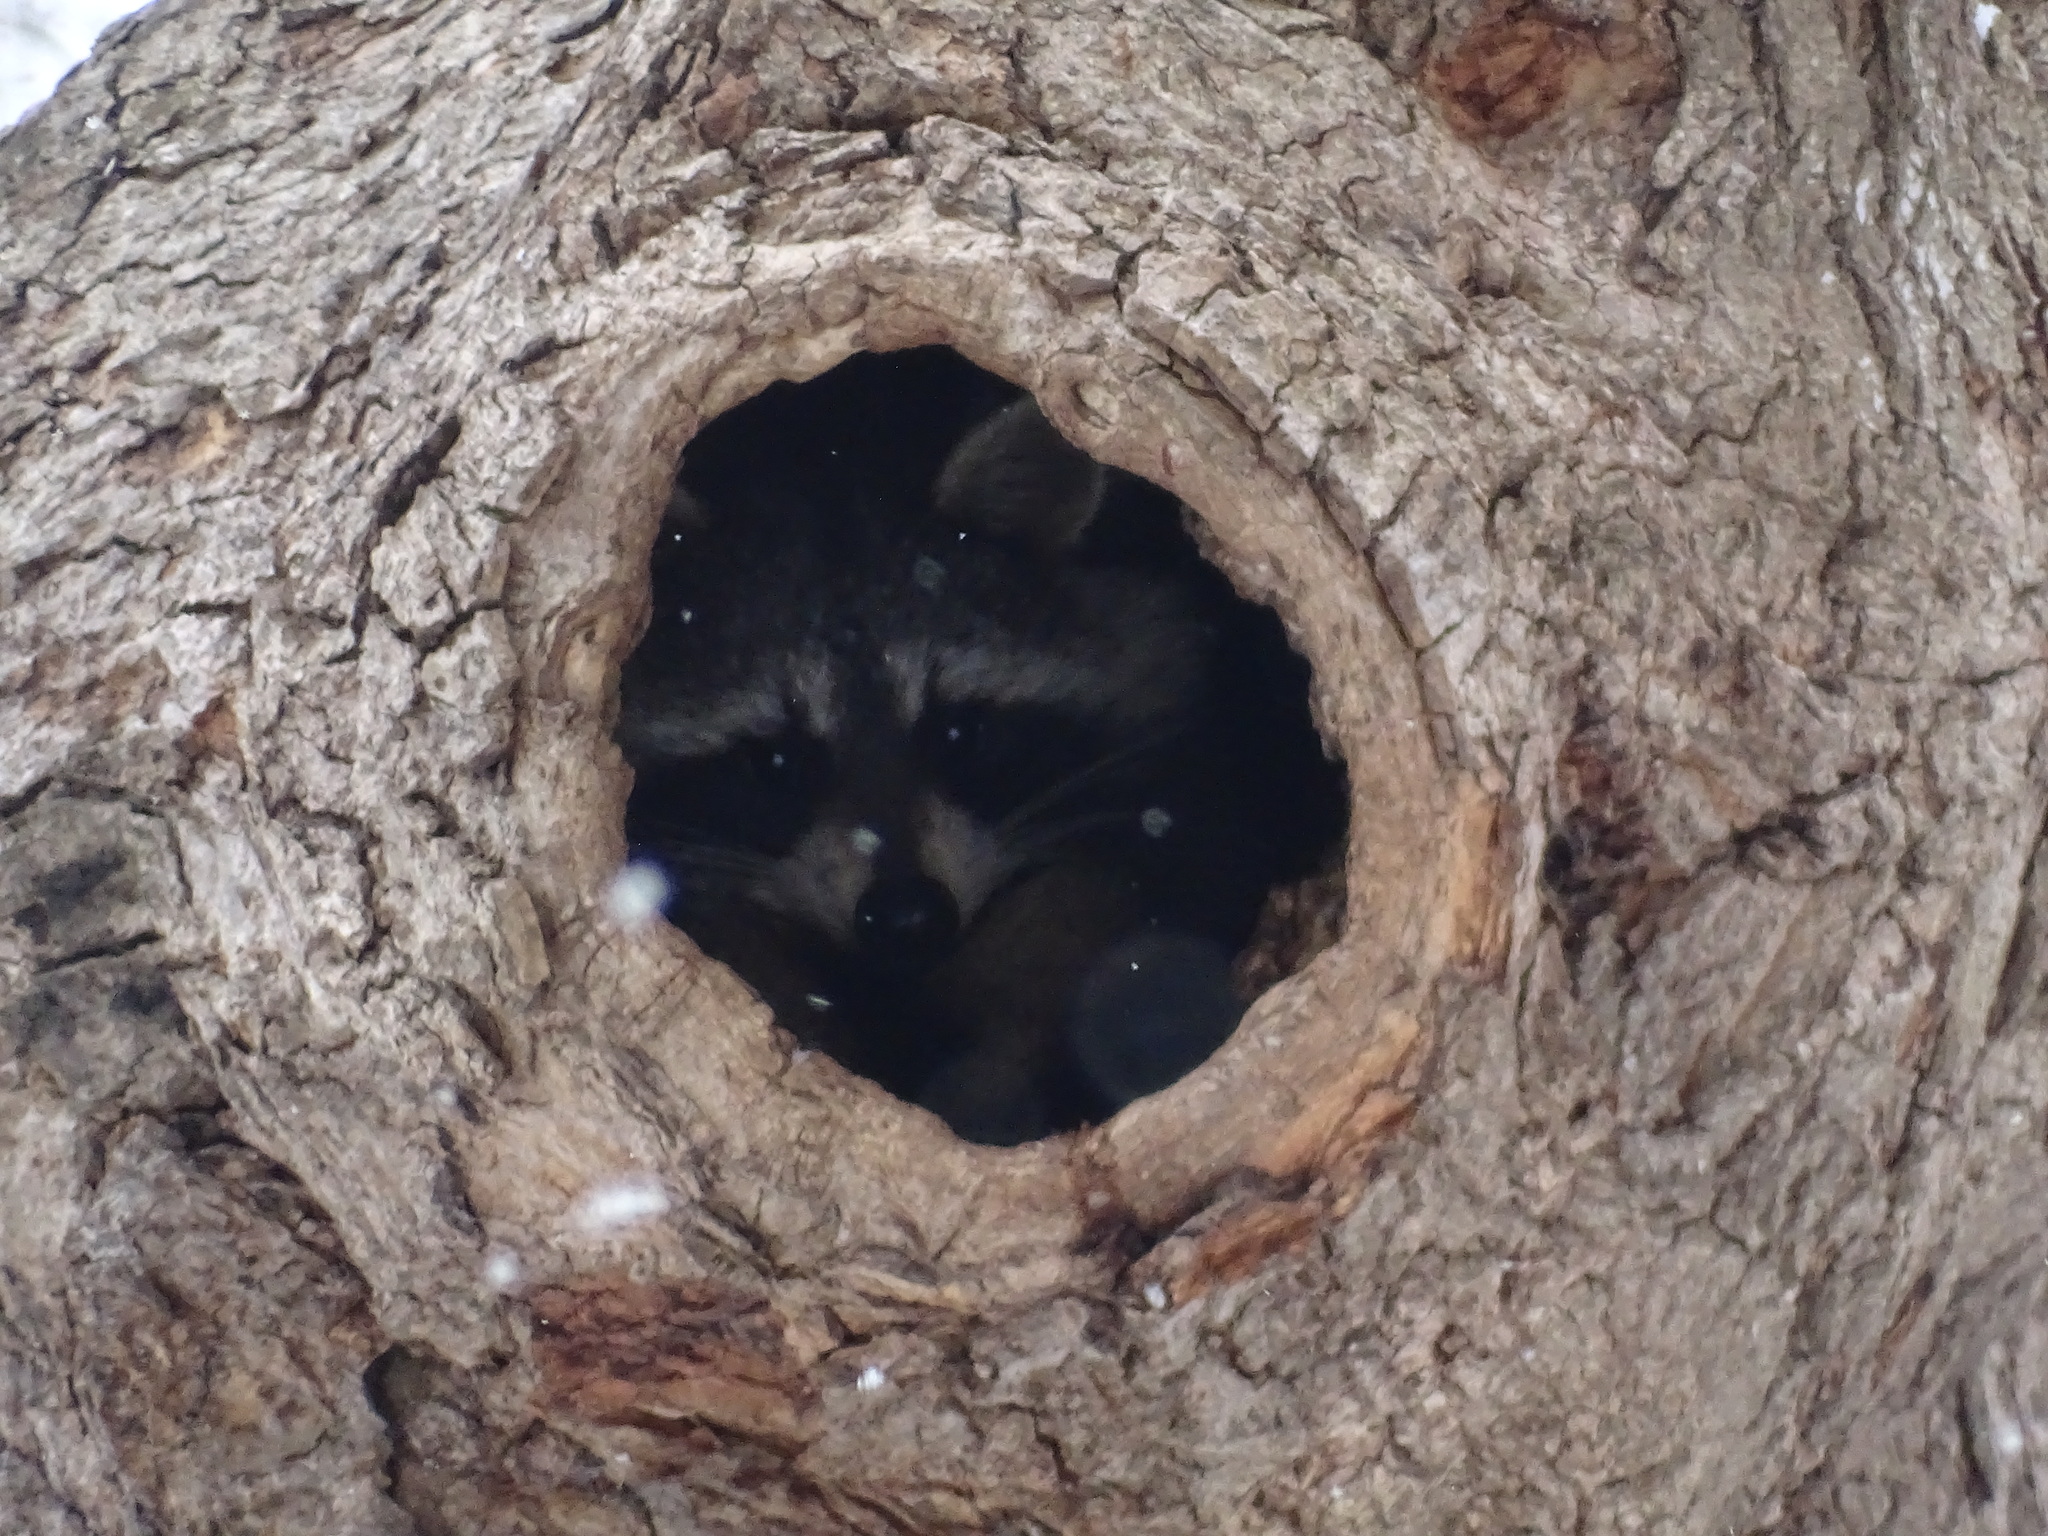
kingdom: Animalia
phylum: Chordata
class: Mammalia
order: Carnivora
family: Procyonidae
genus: Procyon
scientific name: Procyon lotor
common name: Raccoon
